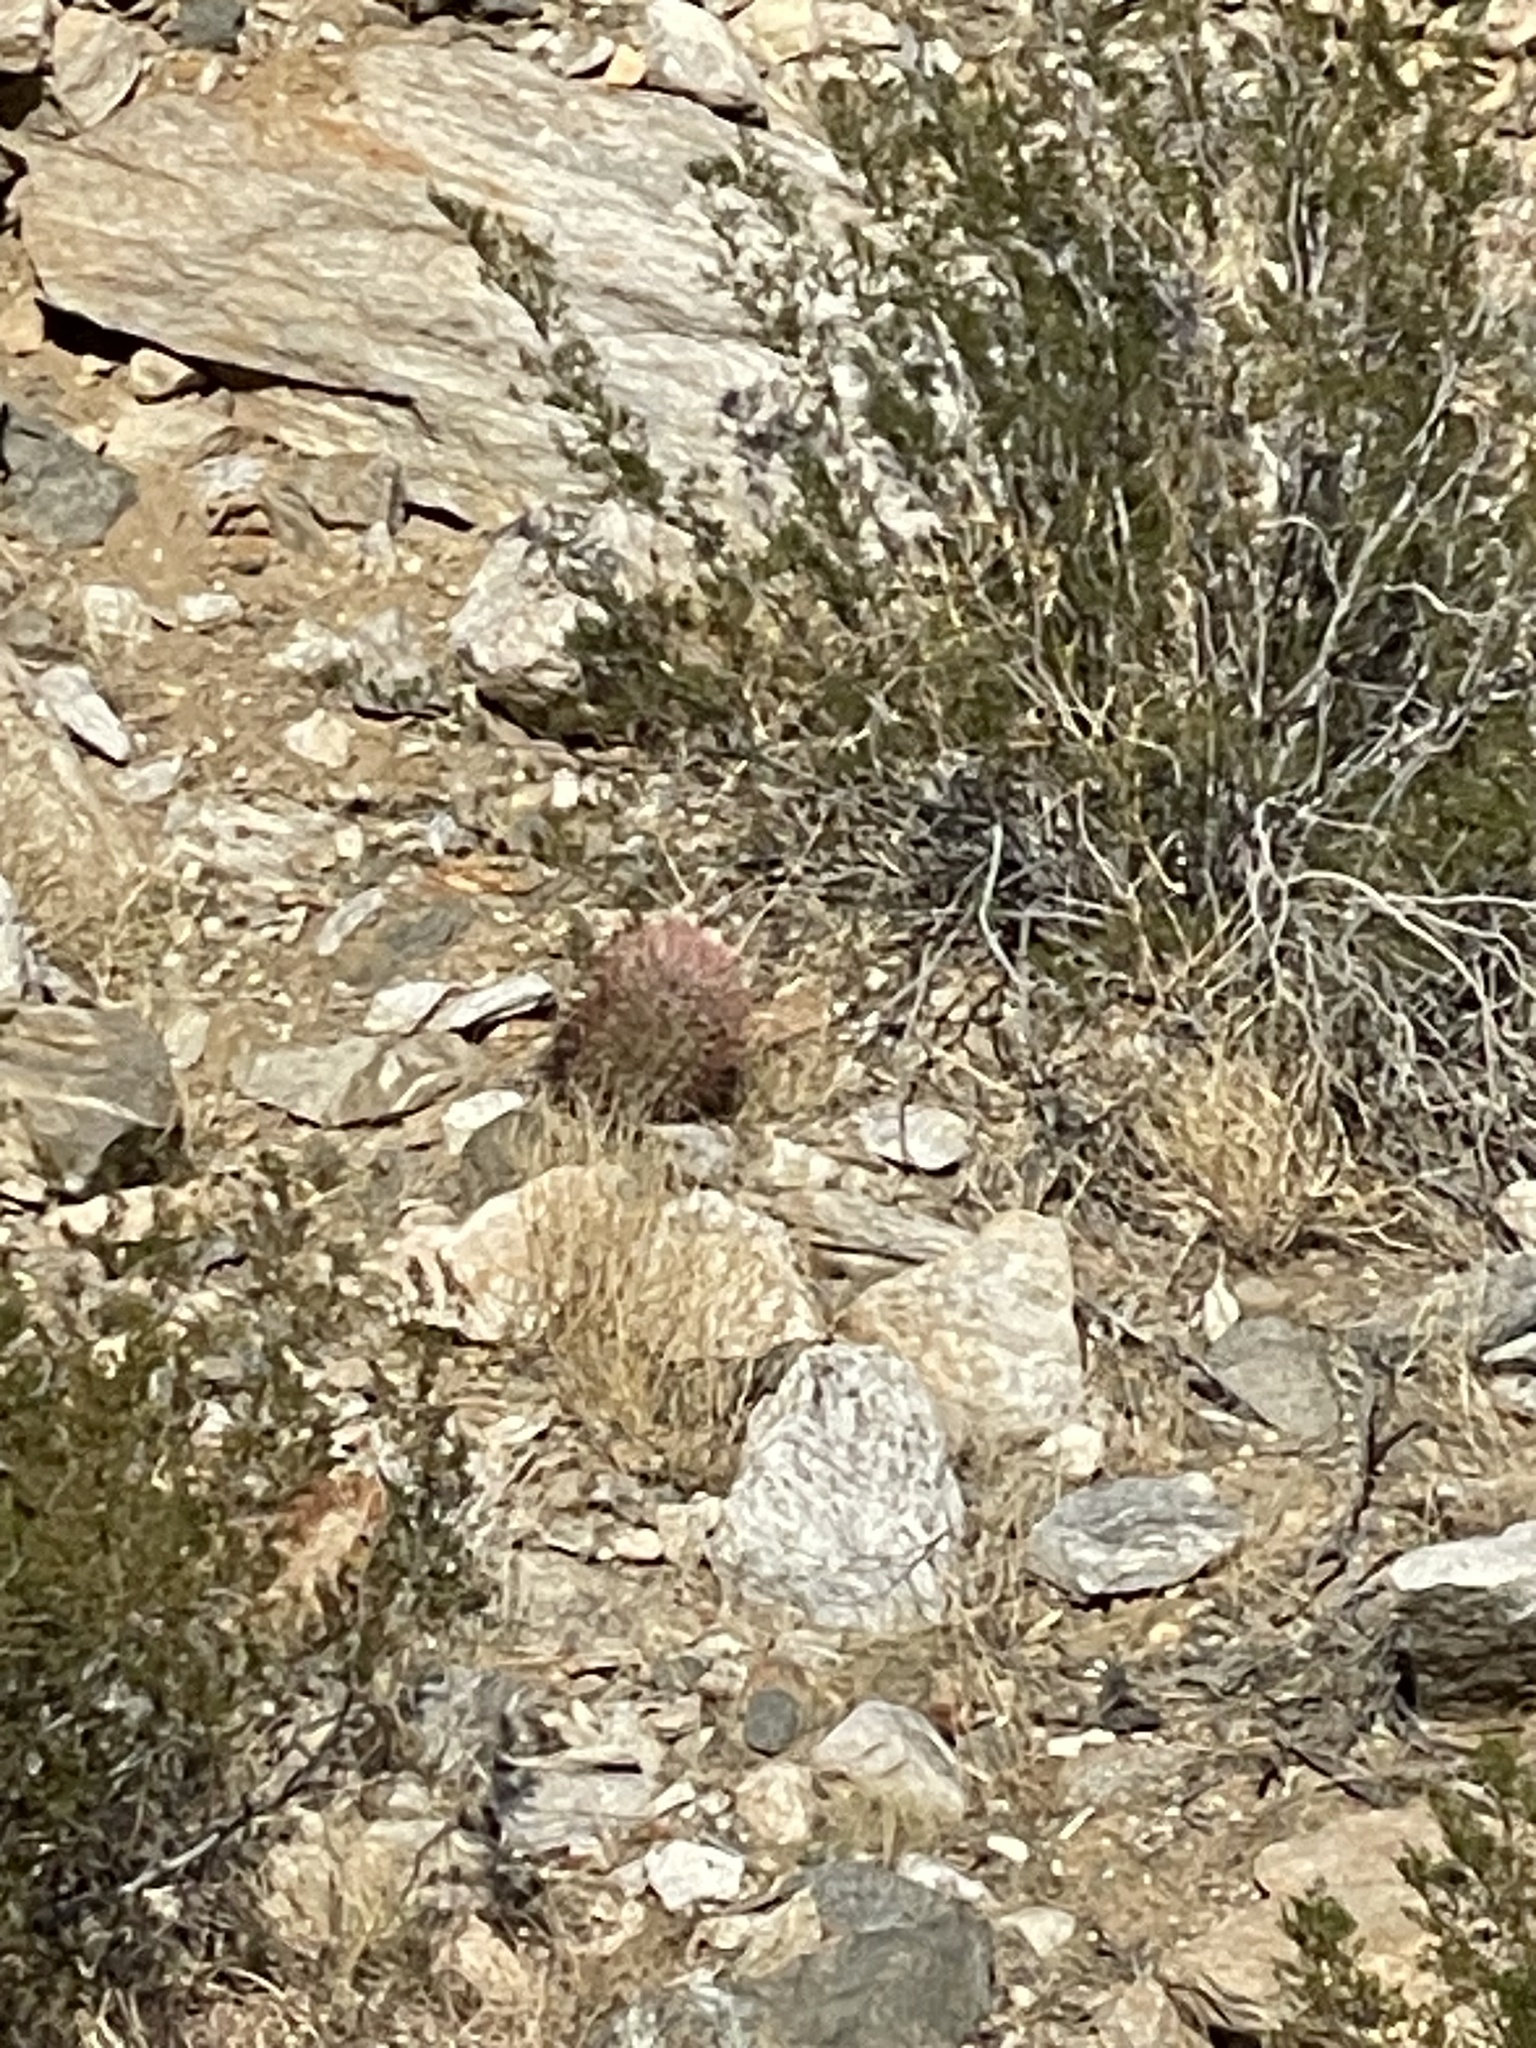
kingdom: Plantae
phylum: Tracheophyta
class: Magnoliopsida
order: Caryophyllales
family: Cactaceae
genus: Ferocactus
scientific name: Ferocactus cylindraceus
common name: California barrel cactus
